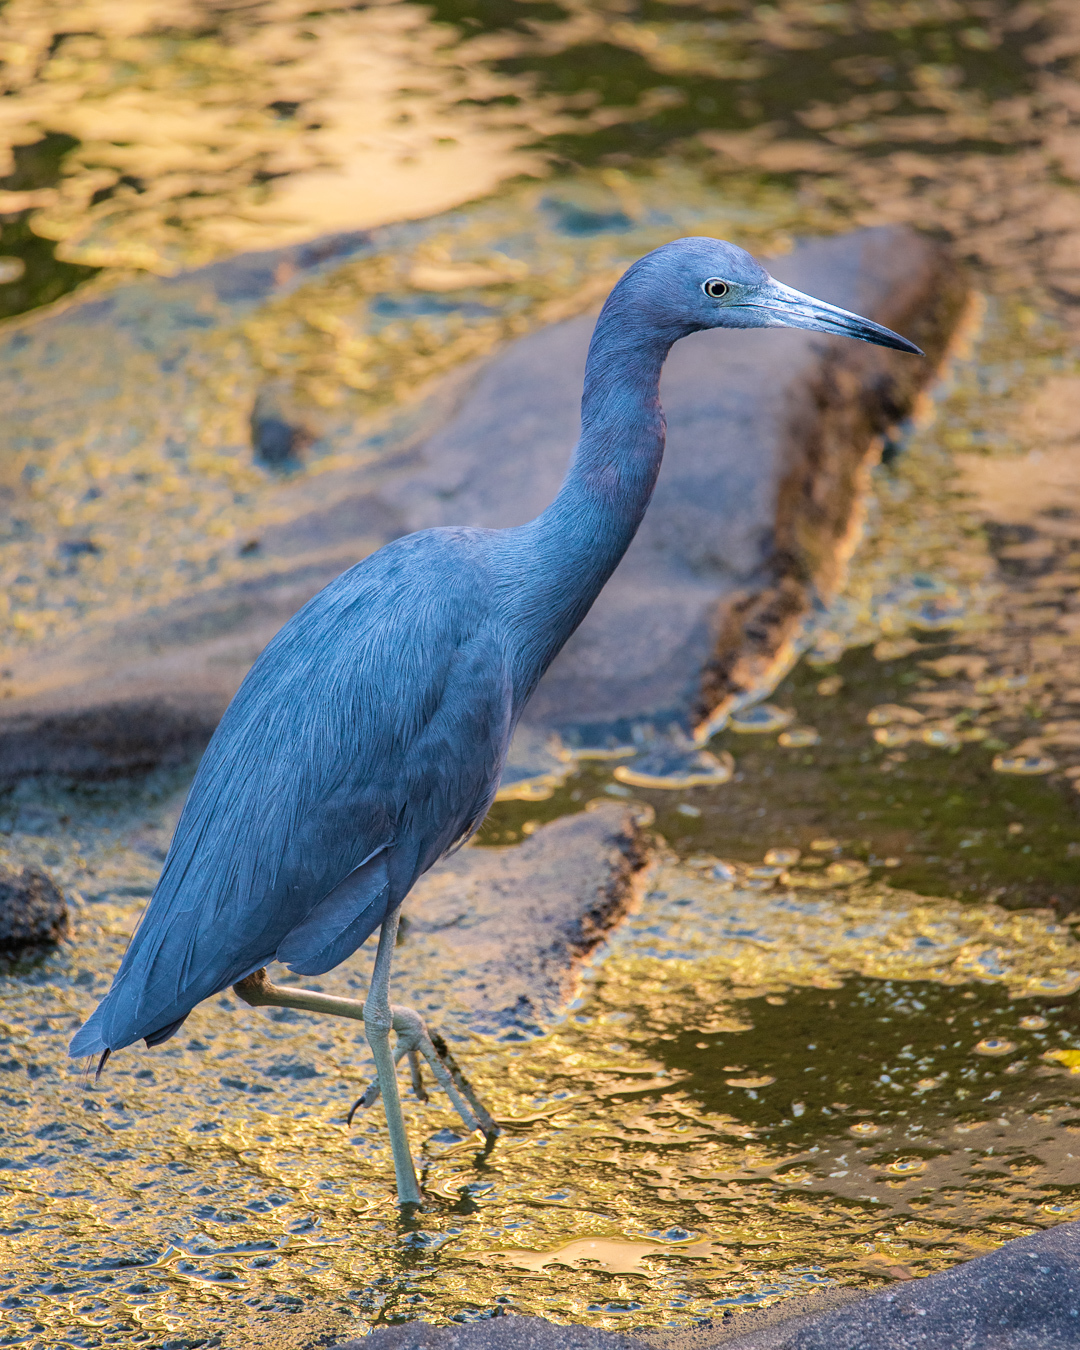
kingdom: Animalia
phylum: Chordata
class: Aves
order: Pelecaniformes
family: Ardeidae
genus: Egretta
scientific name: Egretta caerulea
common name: Little blue heron
